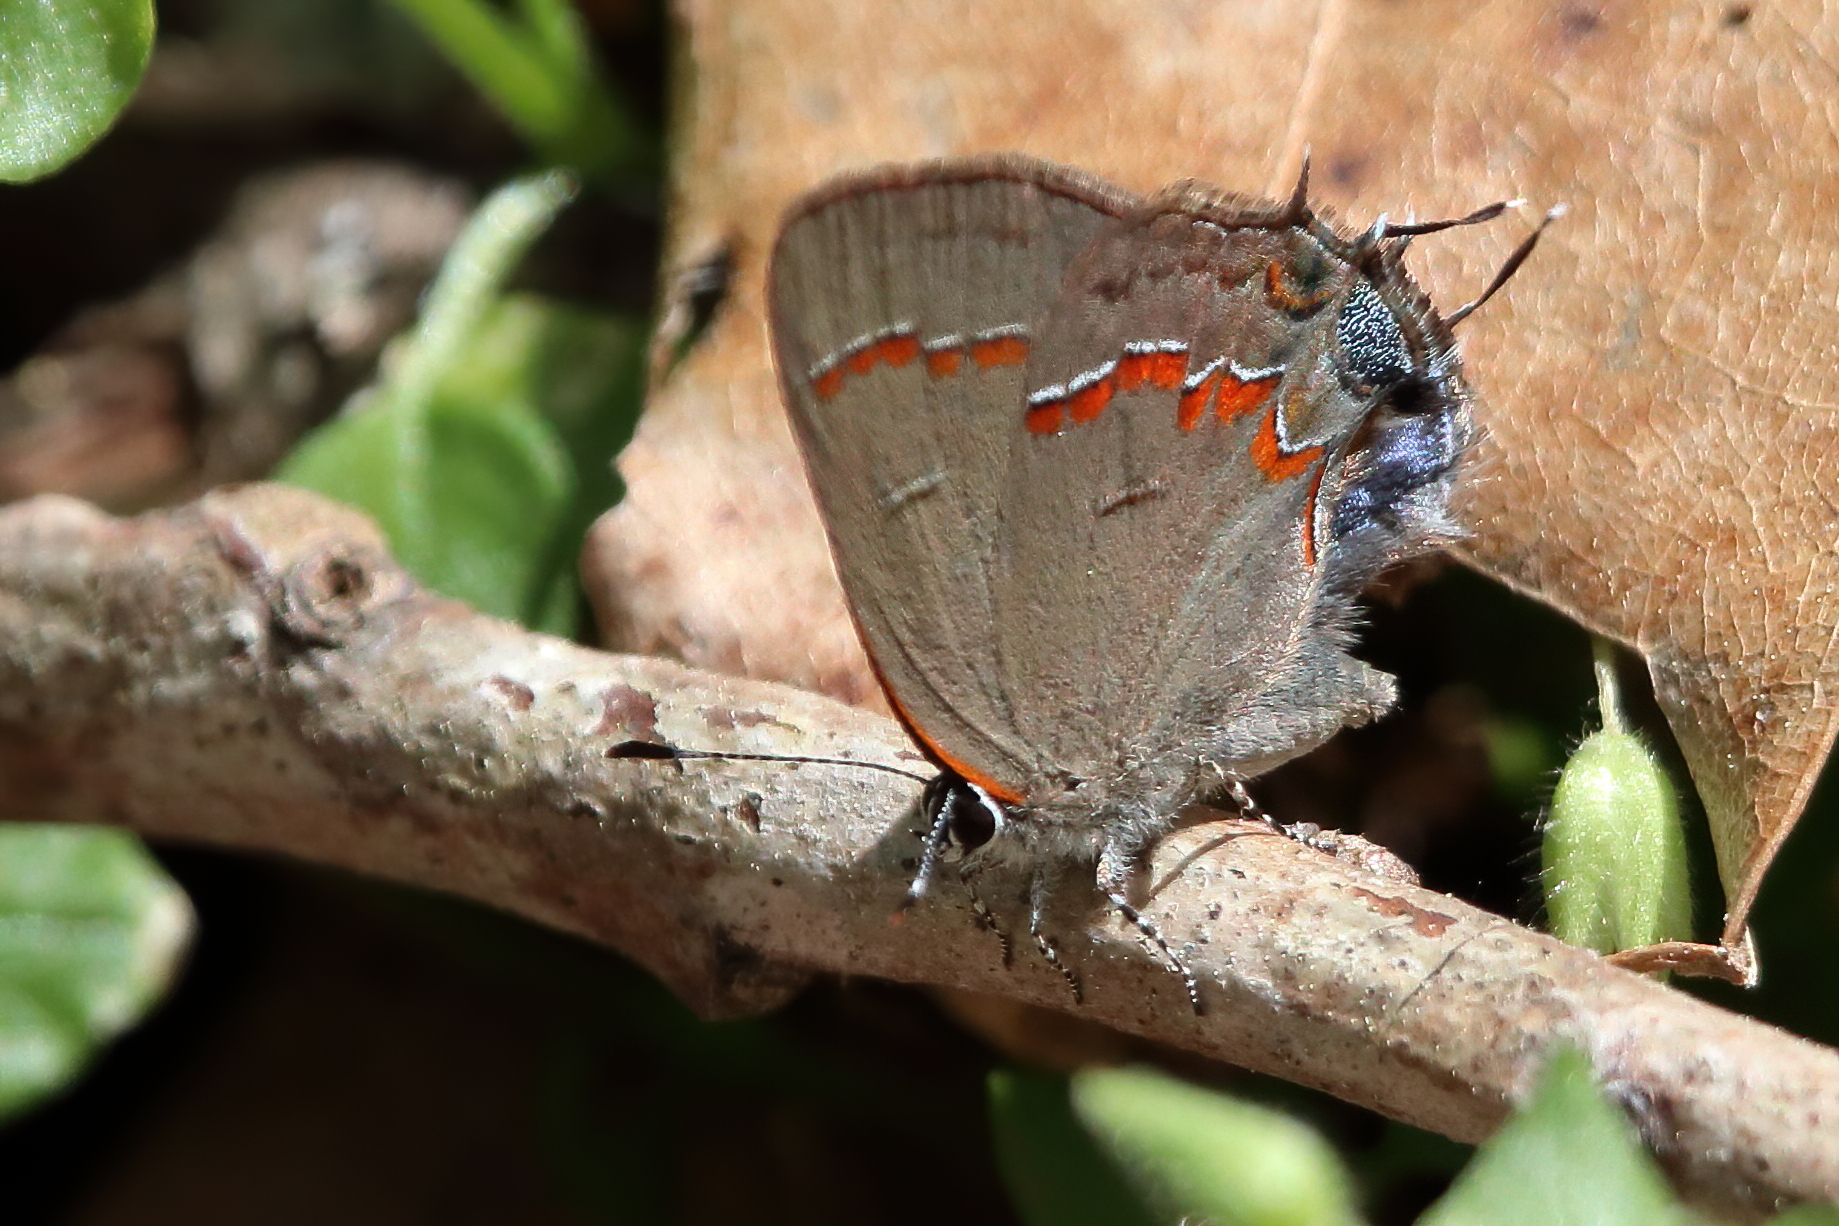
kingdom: Animalia
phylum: Arthropoda
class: Insecta
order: Lepidoptera
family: Lycaenidae
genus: Calycopis
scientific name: Calycopis cecrops
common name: Red-banded hairstreak
